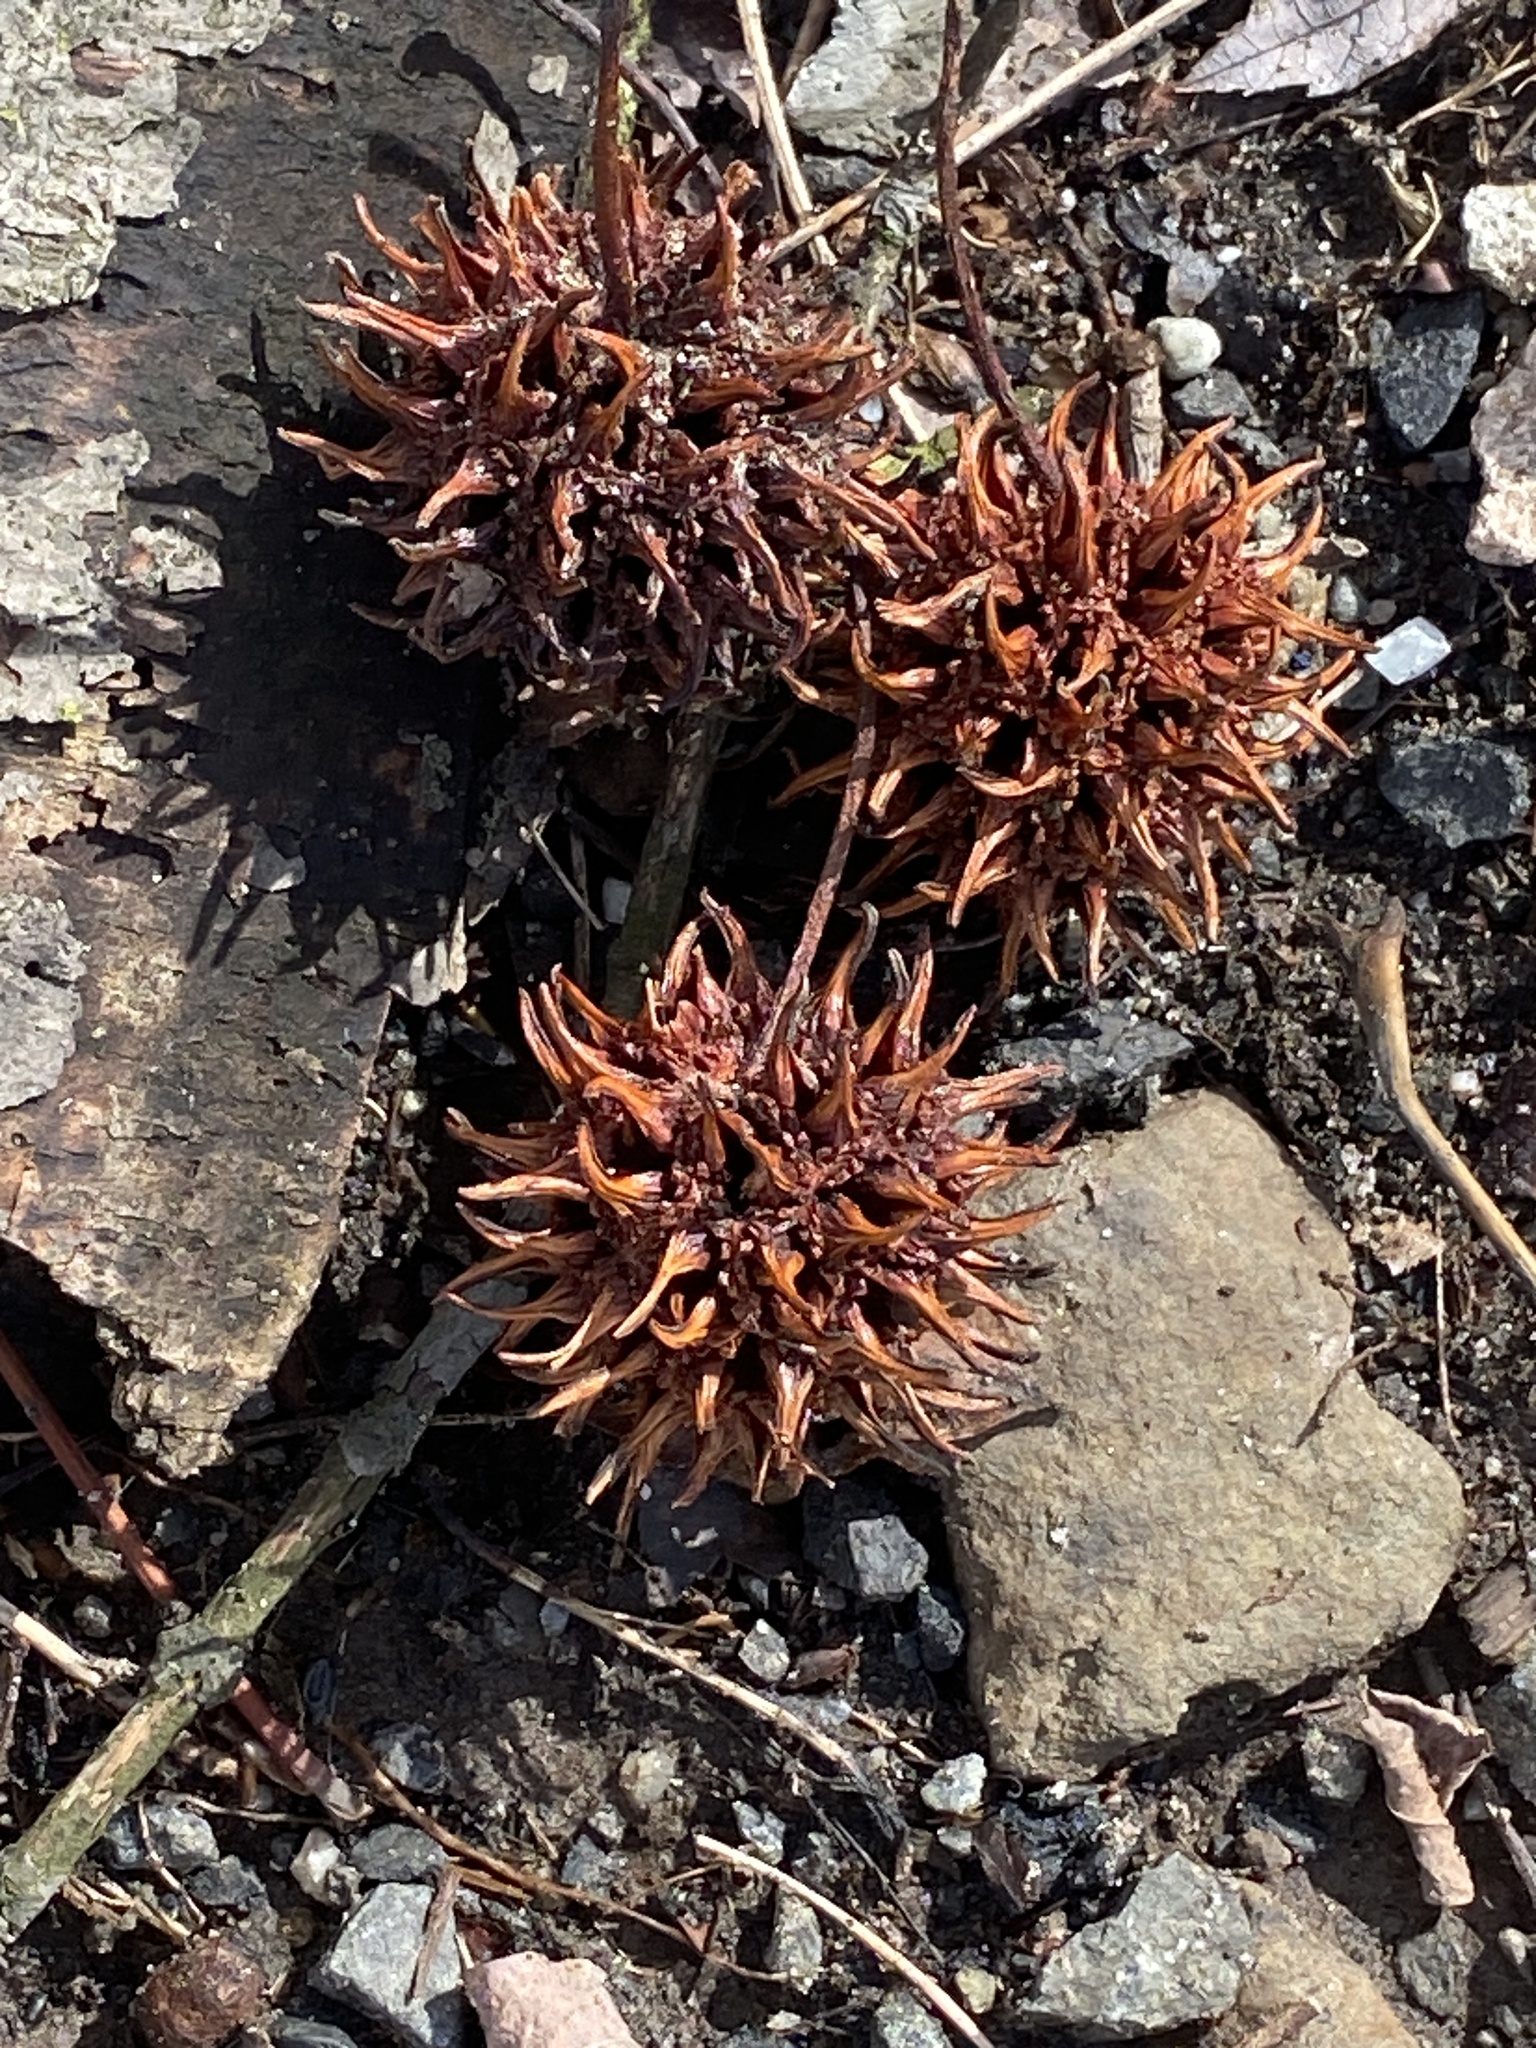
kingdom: Plantae
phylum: Tracheophyta
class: Magnoliopsida
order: Saxifragales
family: Altingiaceae
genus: Liquidambar
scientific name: Liquidambar styraciflua
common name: Sweet gum
